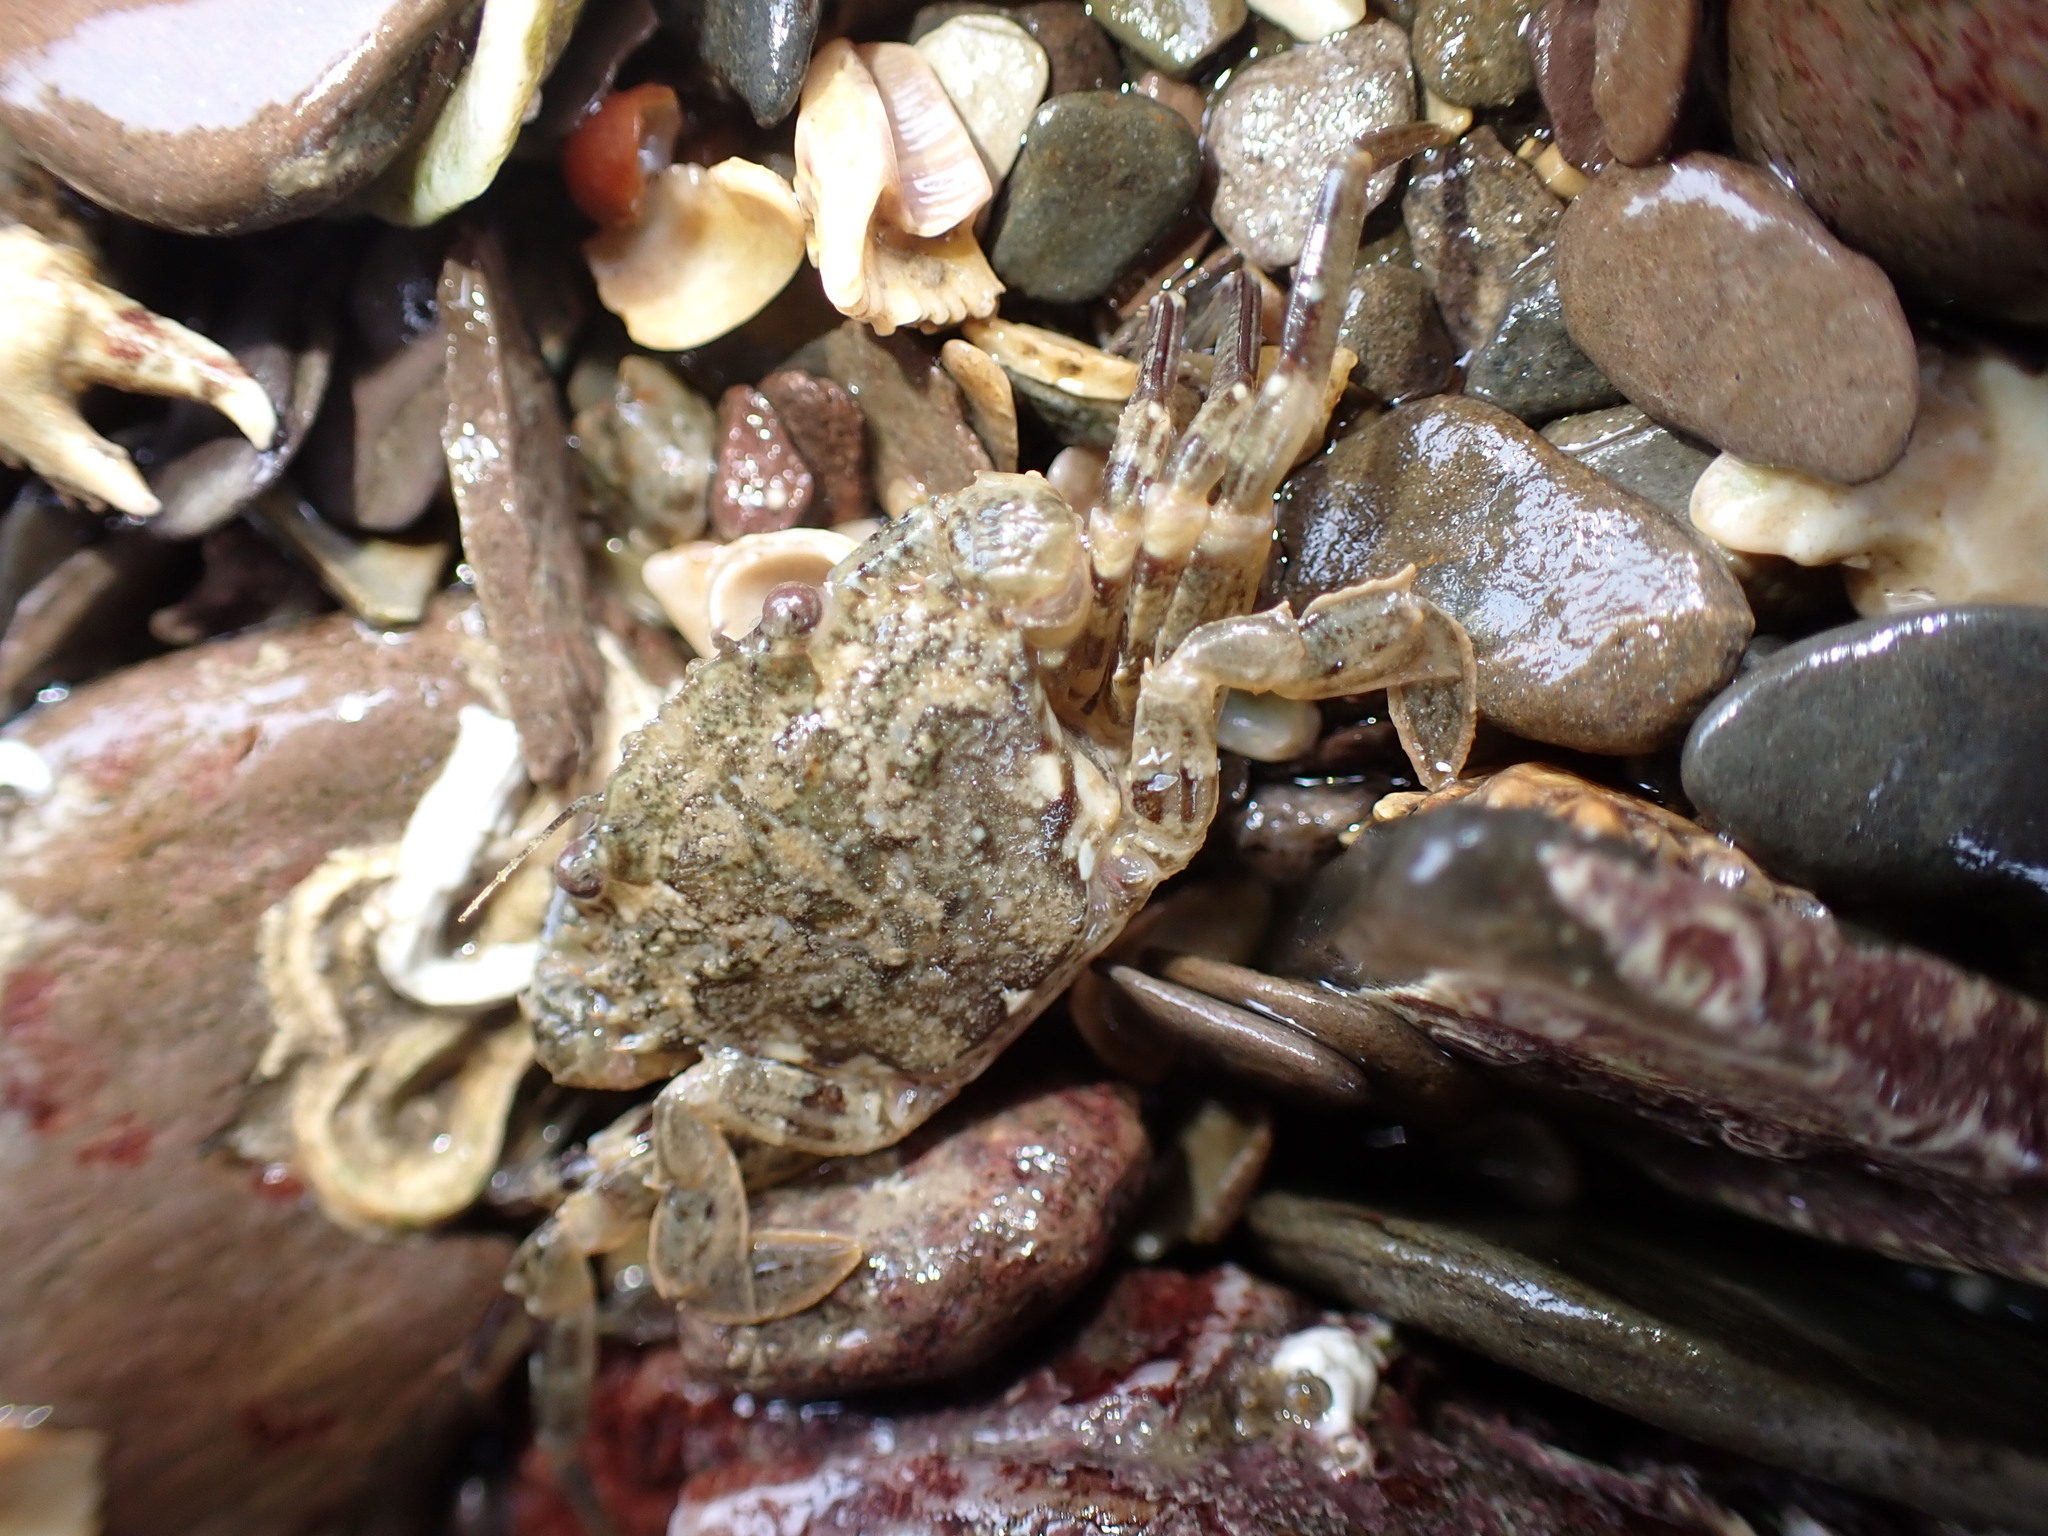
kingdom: Animalia
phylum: Arthropoda
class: Malacostraca
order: Decapoda
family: Polybiidae
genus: Necora
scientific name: Necora puber
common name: Velvet swimming crab
